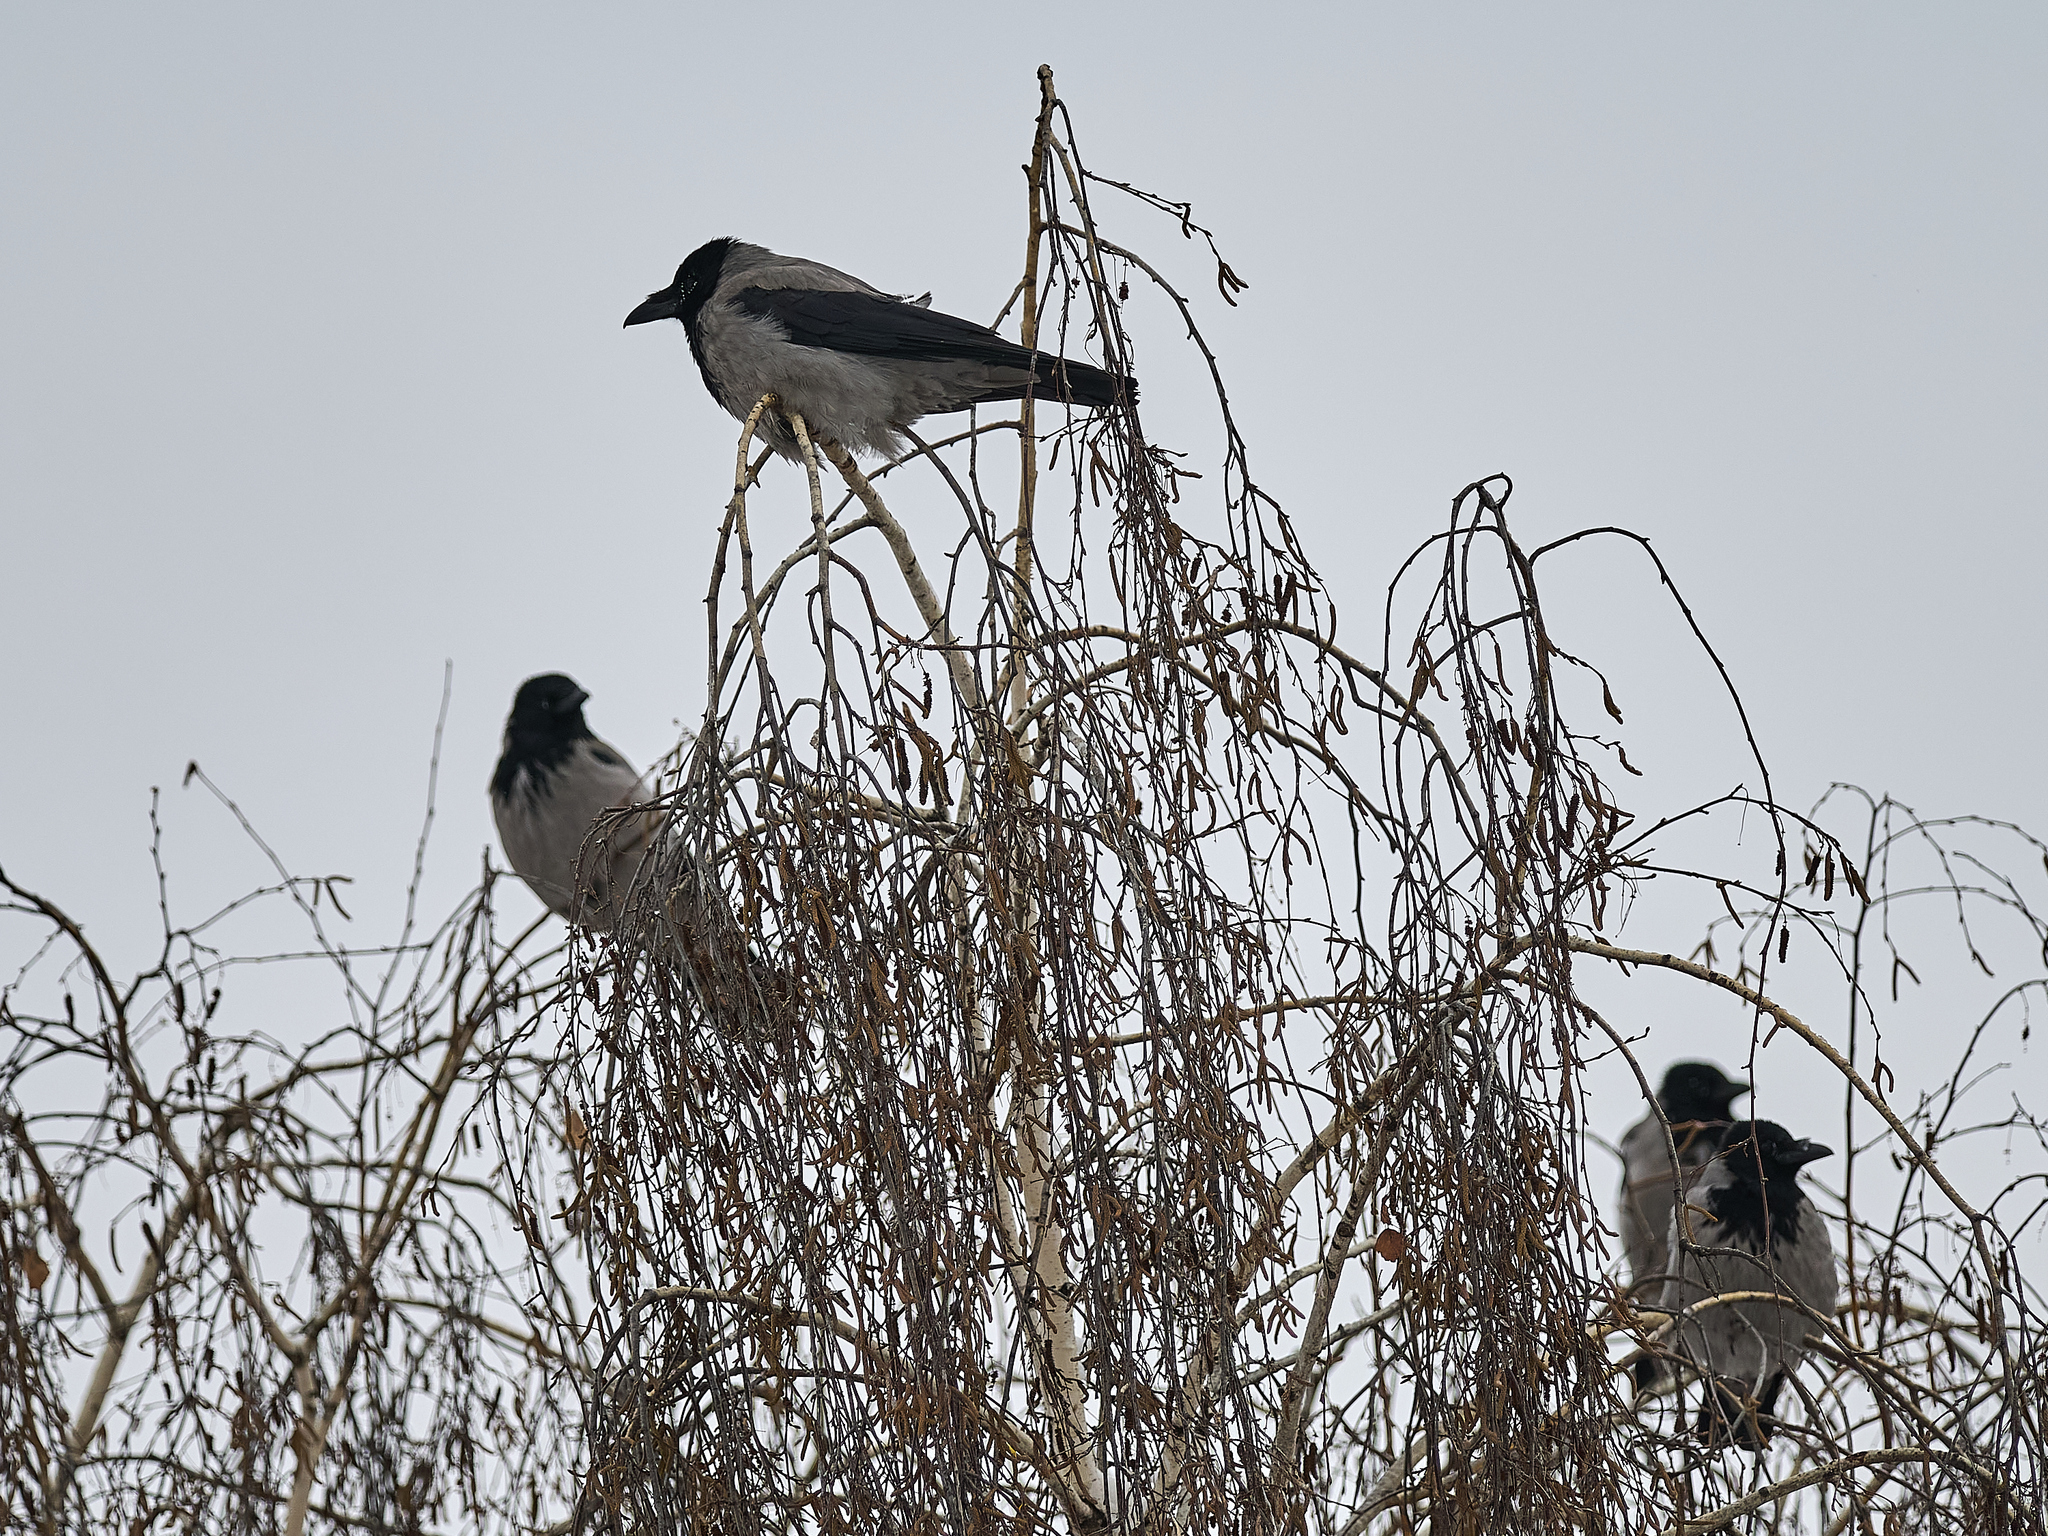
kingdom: Animalia
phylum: Chordata
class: Aves
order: Passeriformes
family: Corvidae
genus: Corvus
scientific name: Corvus cornix
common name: Hooded crow
